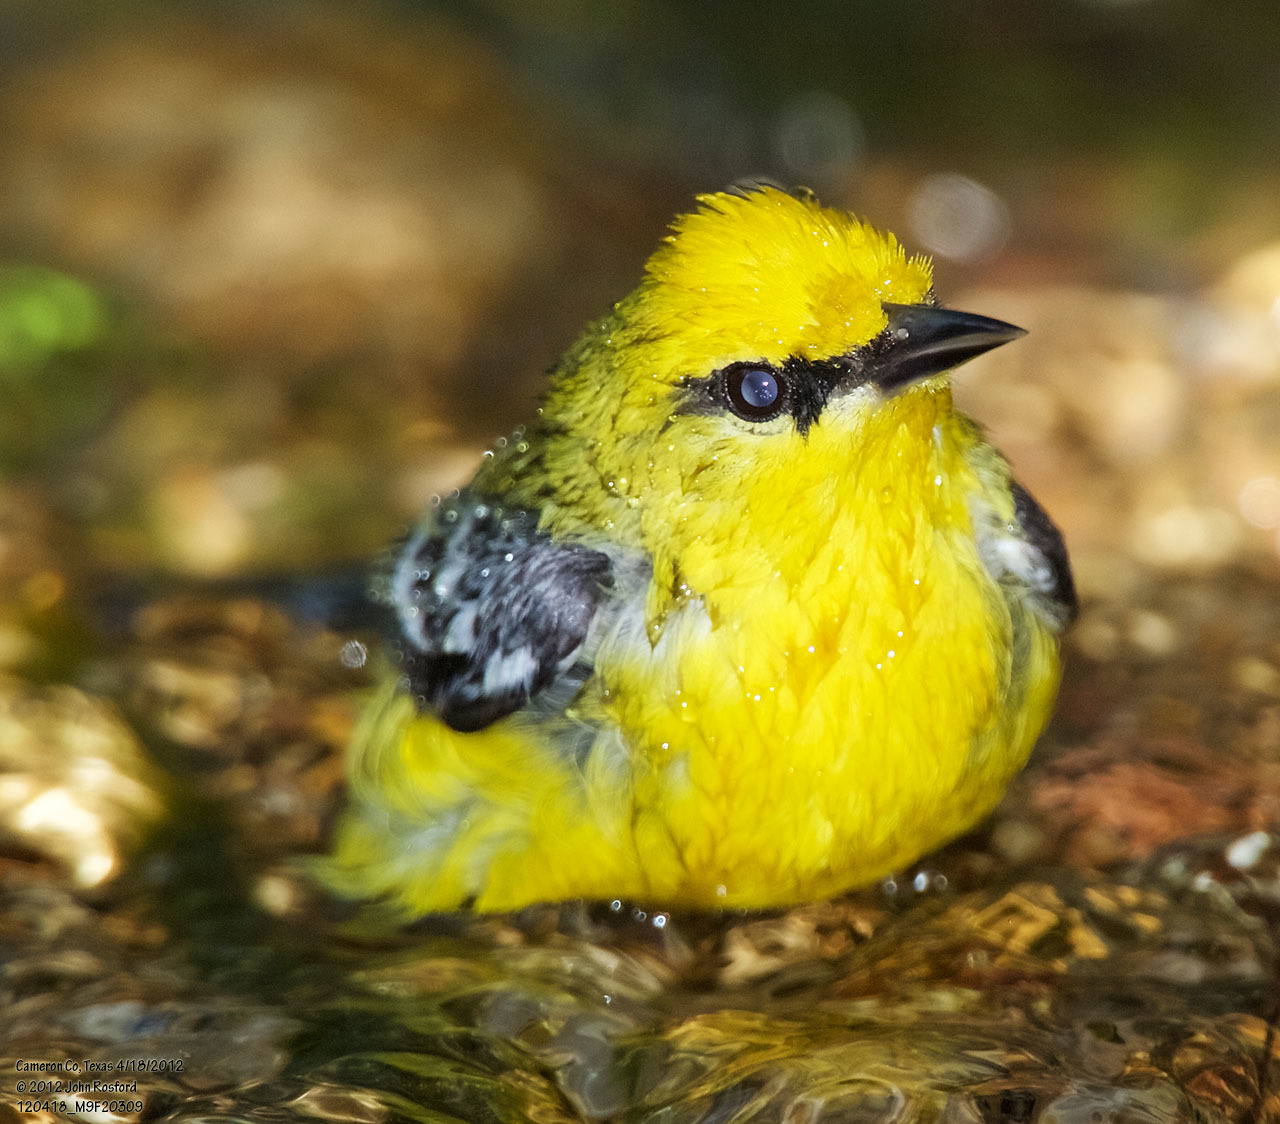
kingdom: Animalia
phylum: Chordata
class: Aves
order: Passeriformes
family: Parulidae
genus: Vermivora
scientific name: Vermivora cyanoptera
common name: Blue-winged warbler
